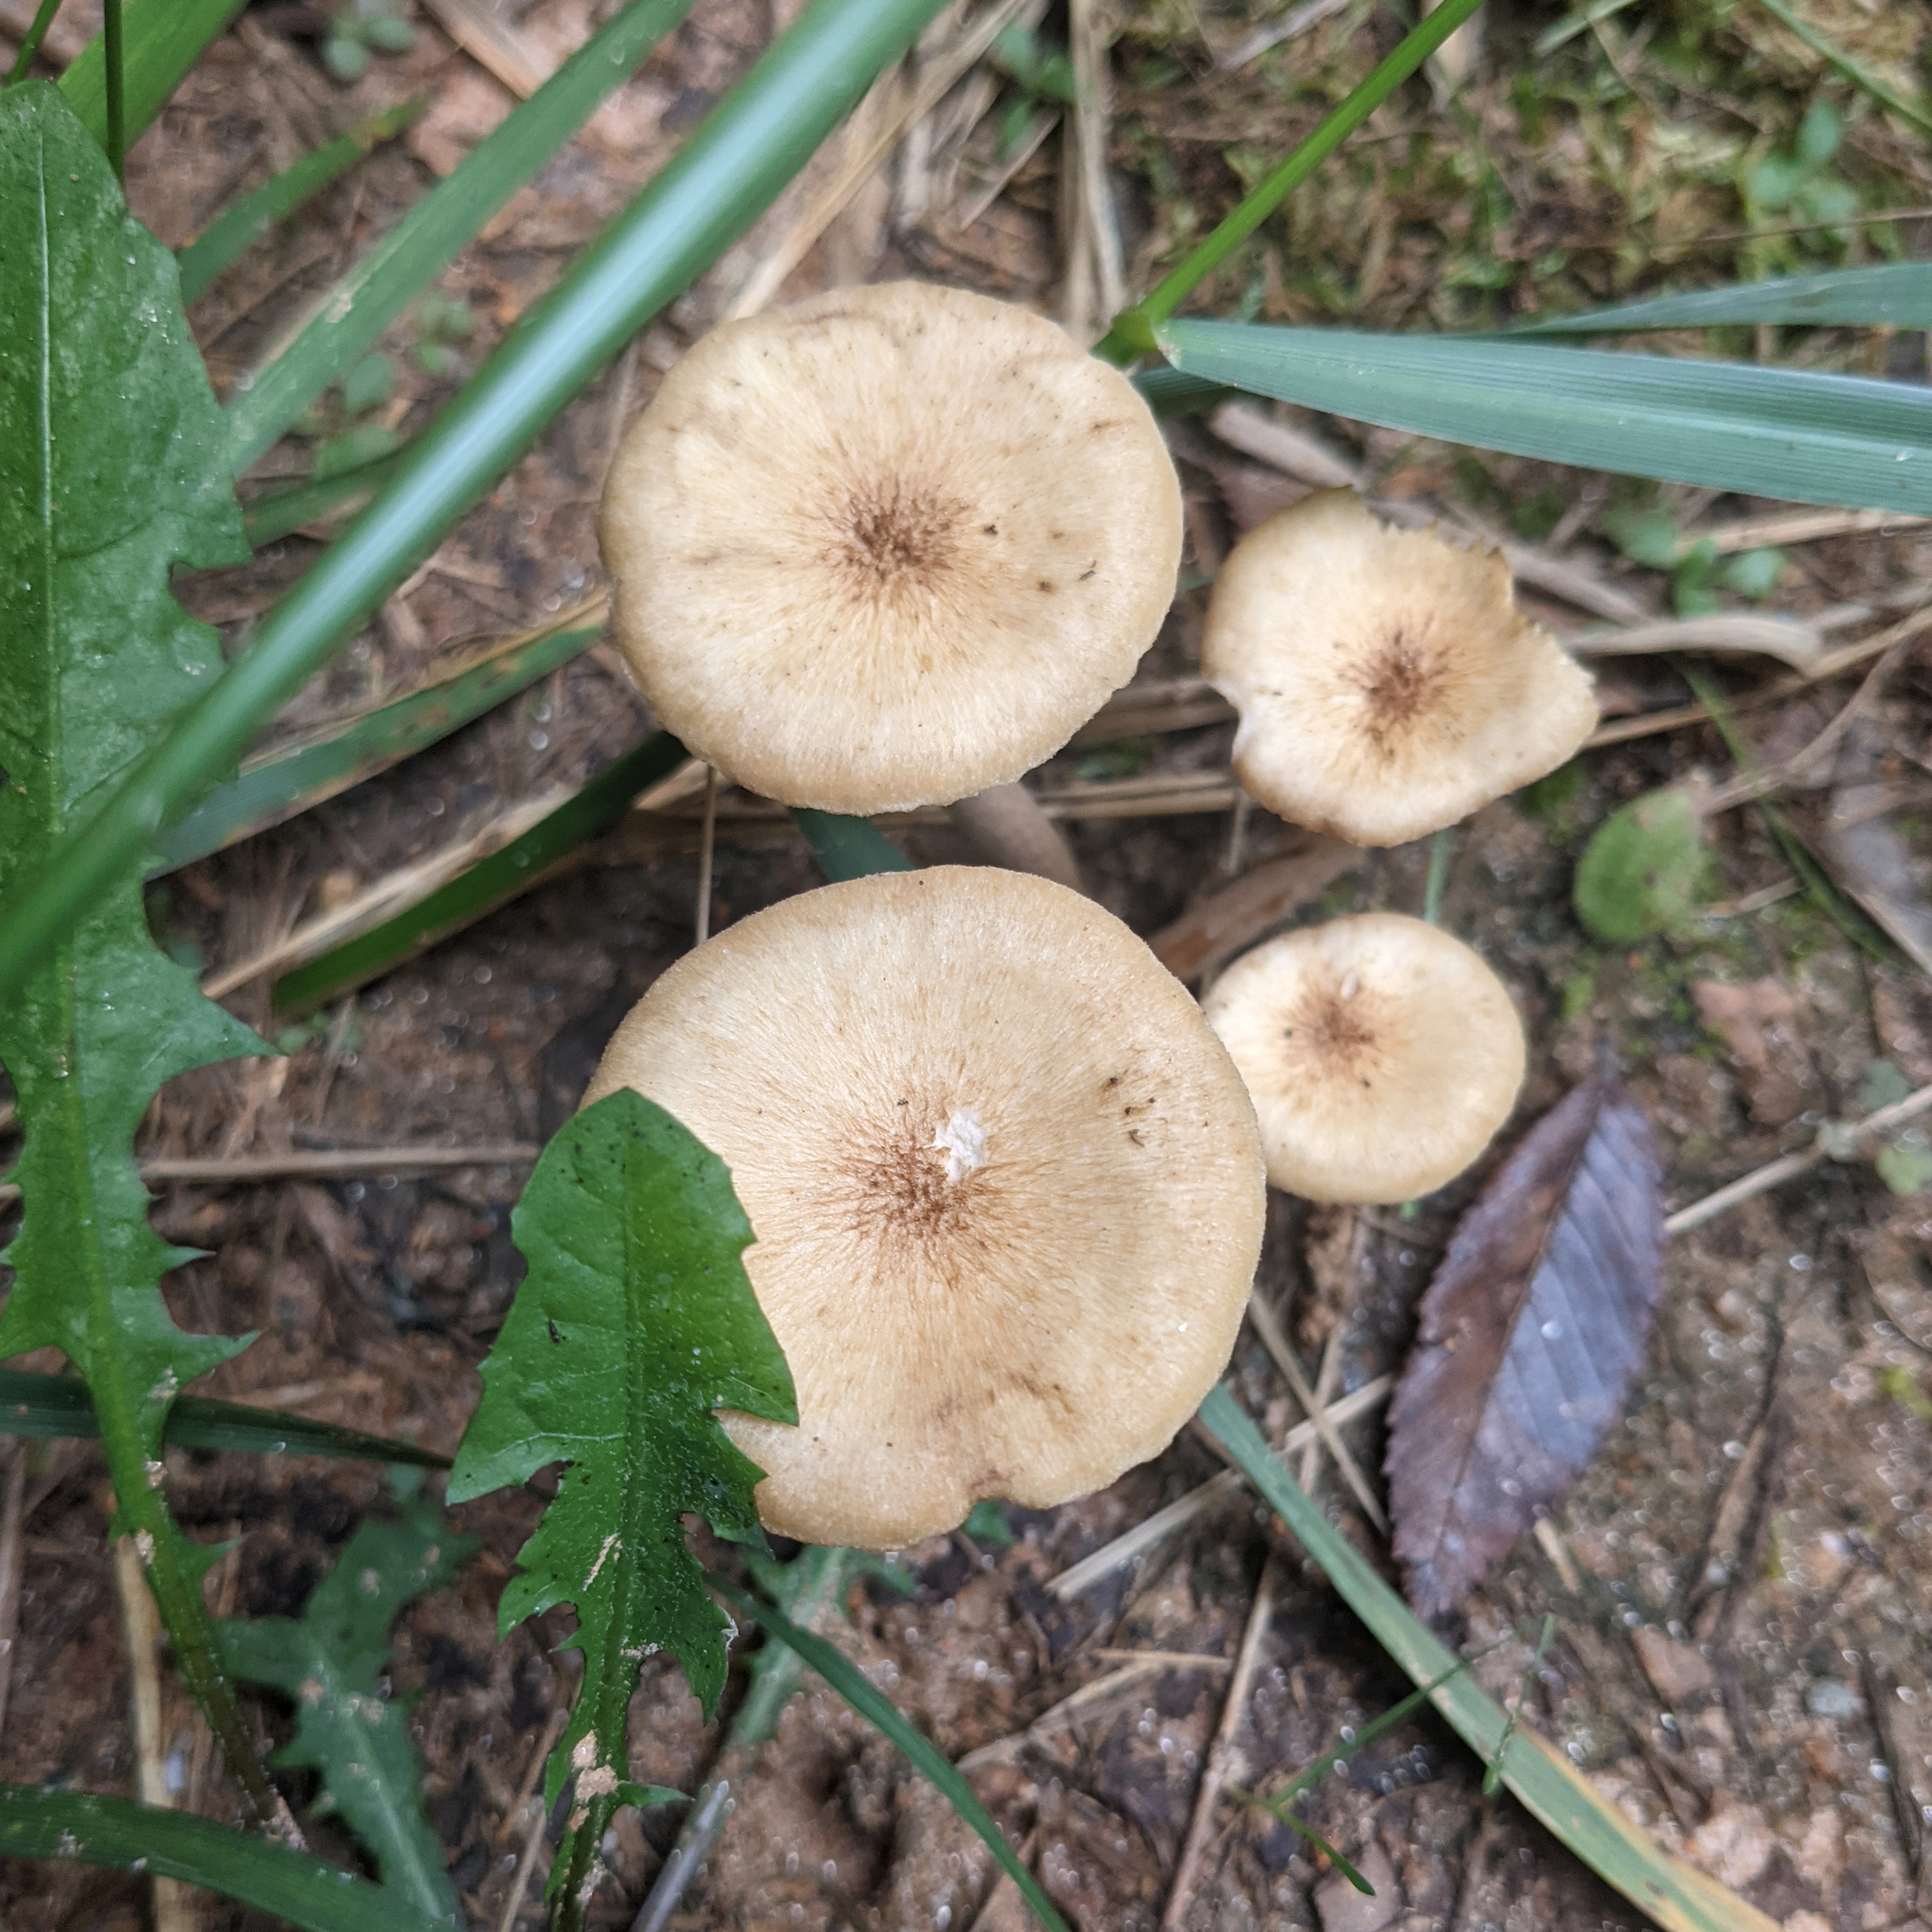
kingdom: Fungi
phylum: Basidiomycota
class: Agaricomycetes
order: Agaricales
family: Physalacriaceae
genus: Desarmillaria
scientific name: Desarmillaria caespitosa
